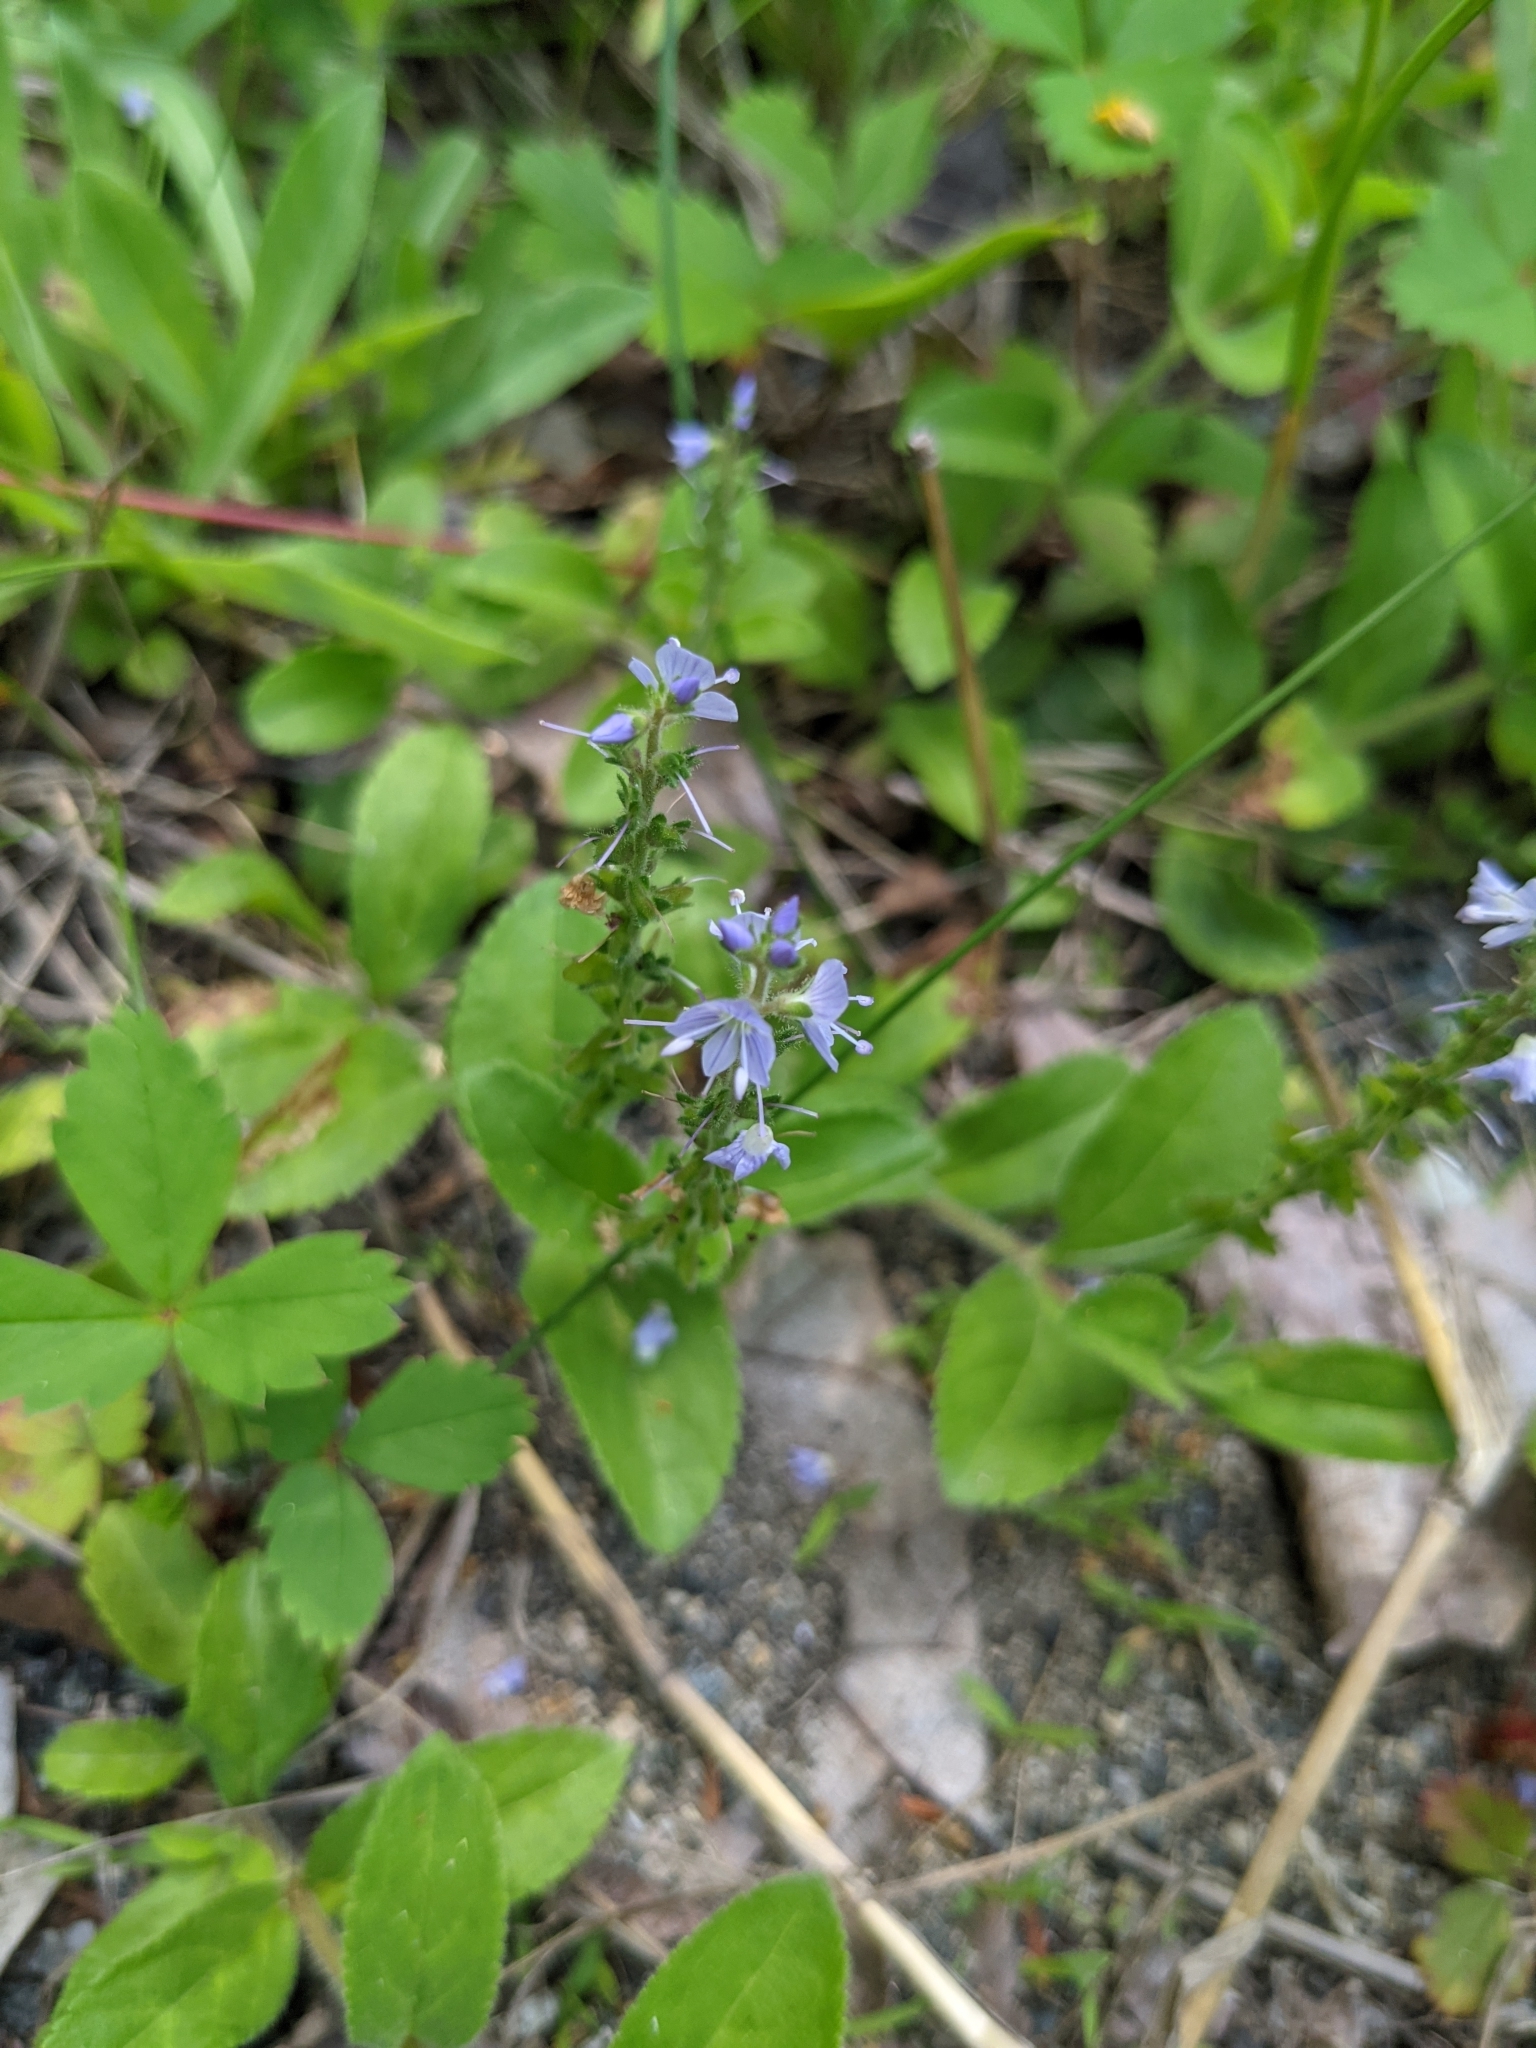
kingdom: Plantae
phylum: Tracheophyta
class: Magnoliopsida
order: Lamiales
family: Plantaginaceae
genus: Veronica
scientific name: Veronica officinalis
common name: Common speedwell
